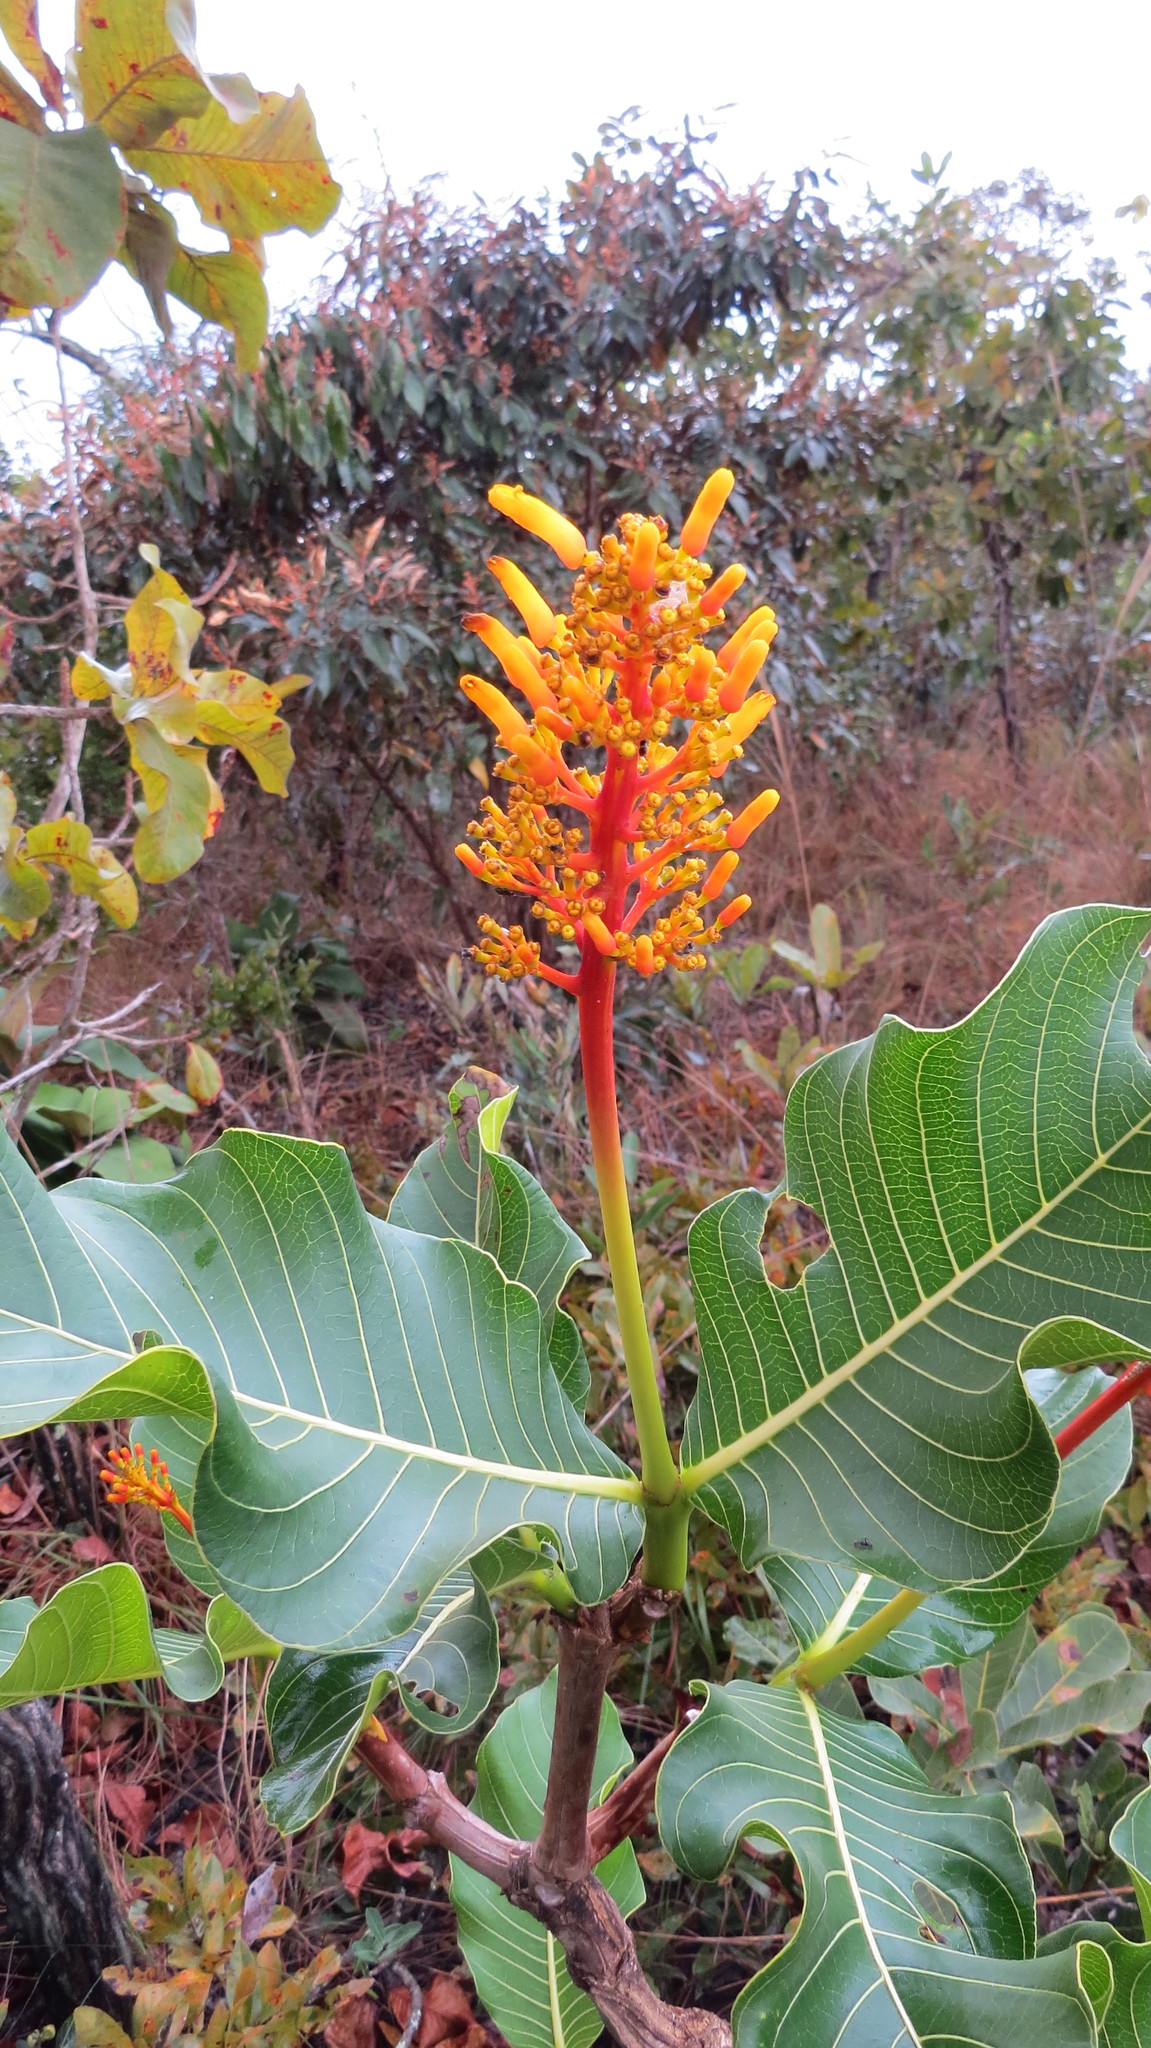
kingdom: Plantae
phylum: Tracheophyta
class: Magnoliopsida
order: Gentianales
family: Rubiaceae
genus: Palicourea
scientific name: Palicourea rigida
